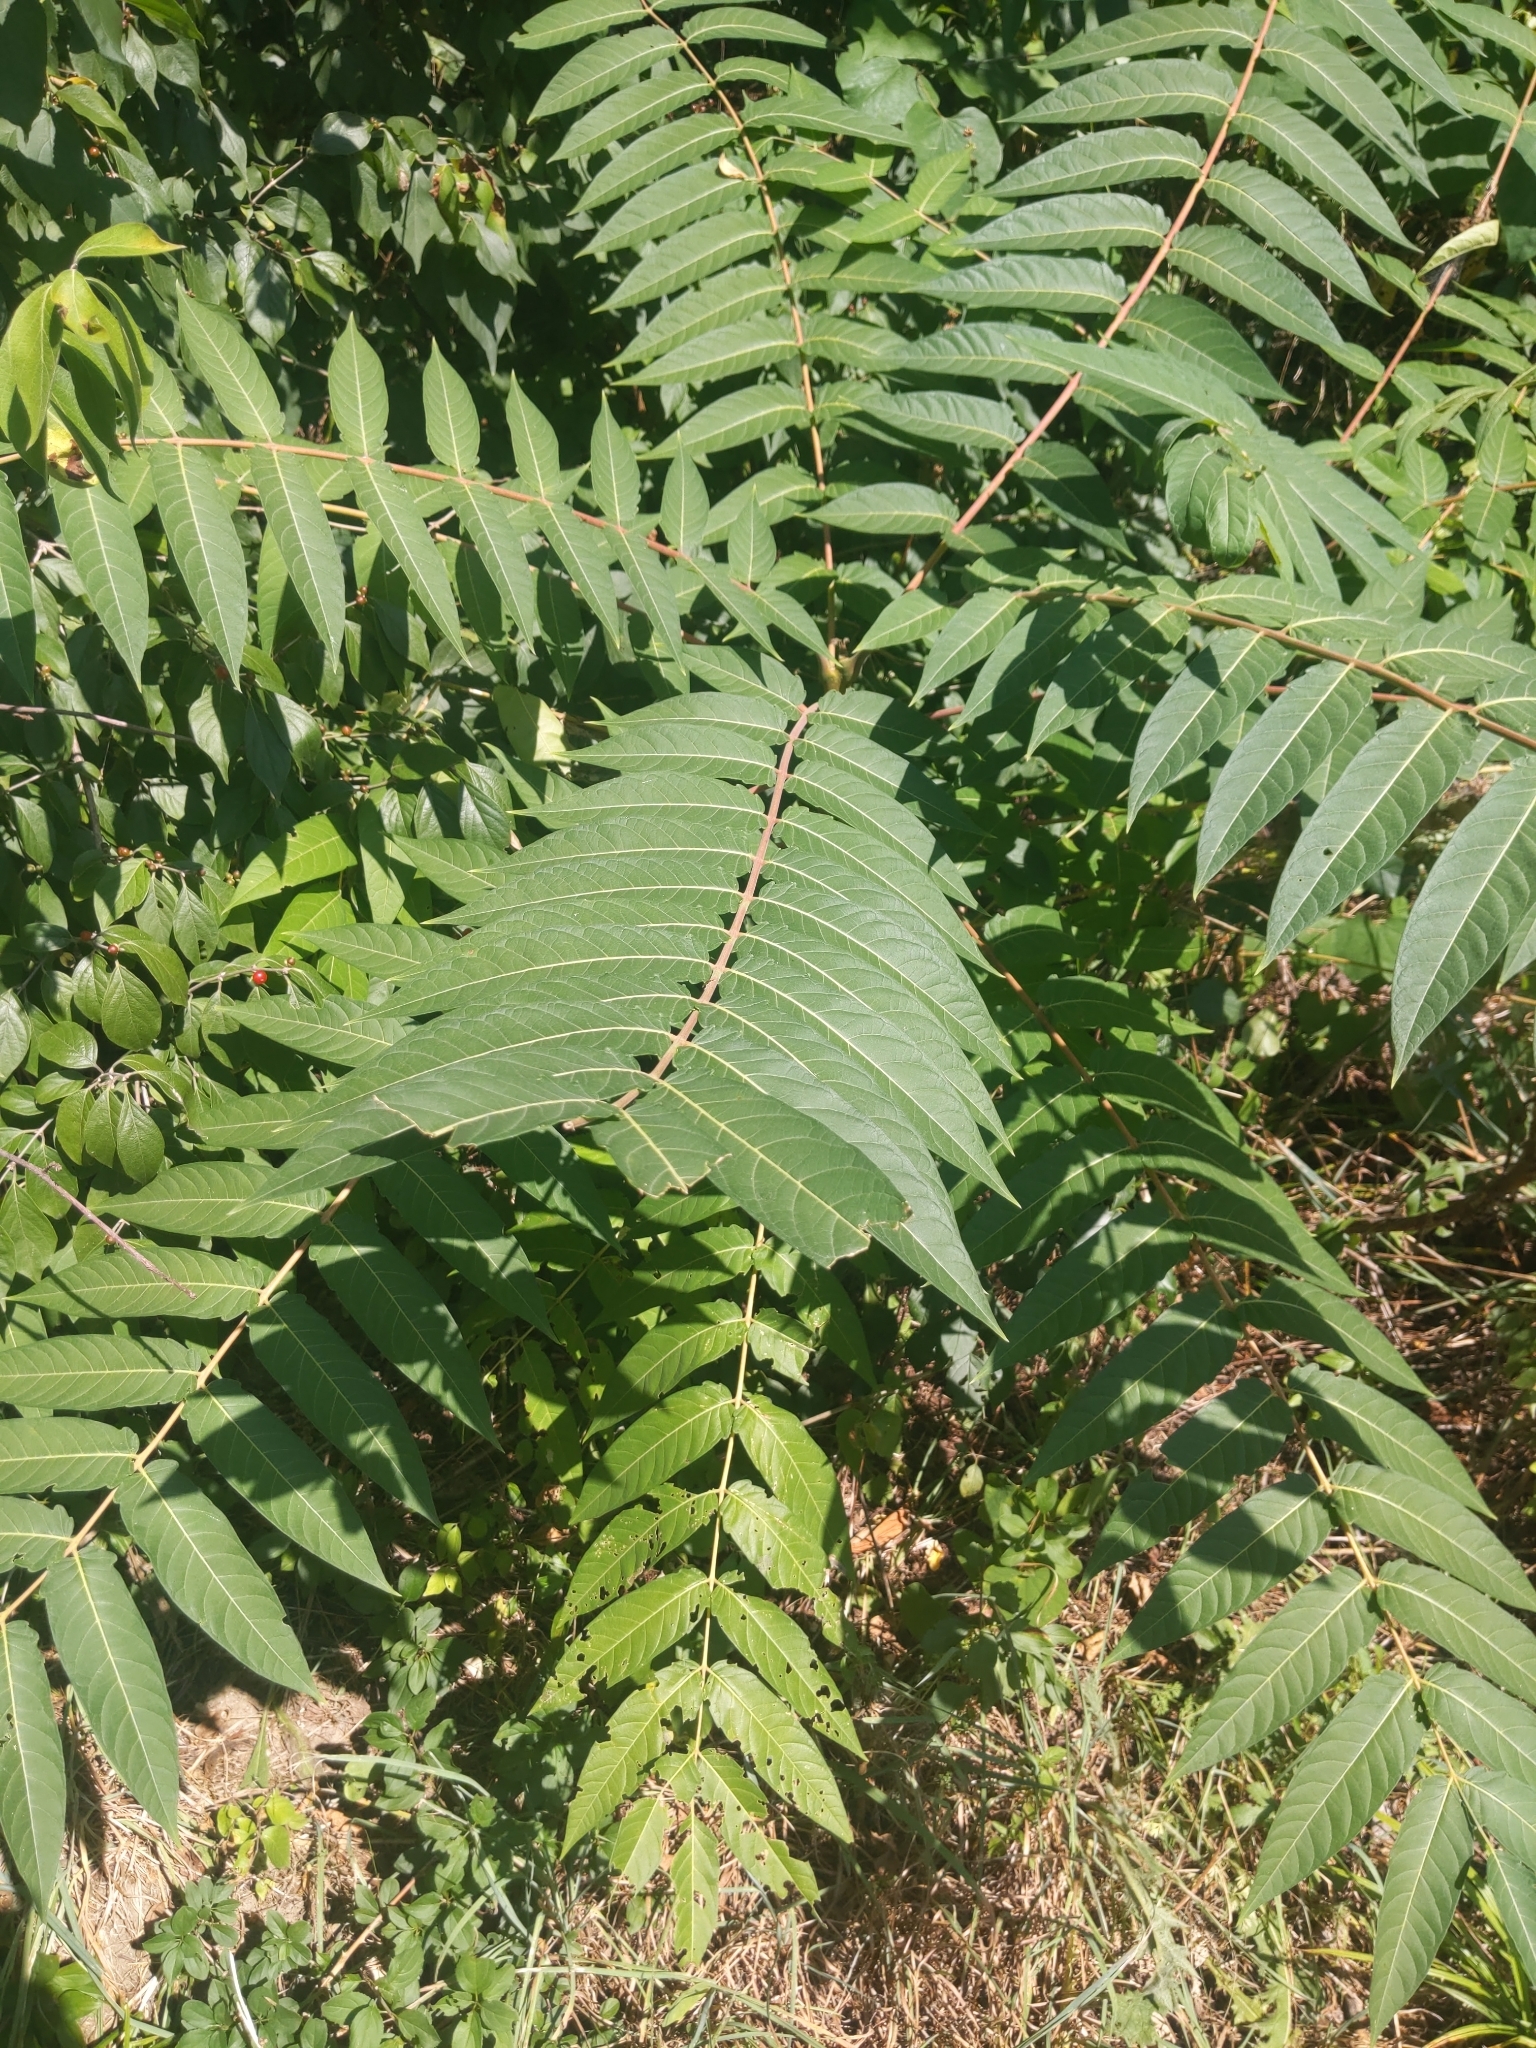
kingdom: Plantae
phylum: Tracheophyta
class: Magnoliopsida
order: Sapindales
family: Simaroubaceae
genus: Ailanthus
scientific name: Ailanthus altissima
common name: Tree-of-heaven
